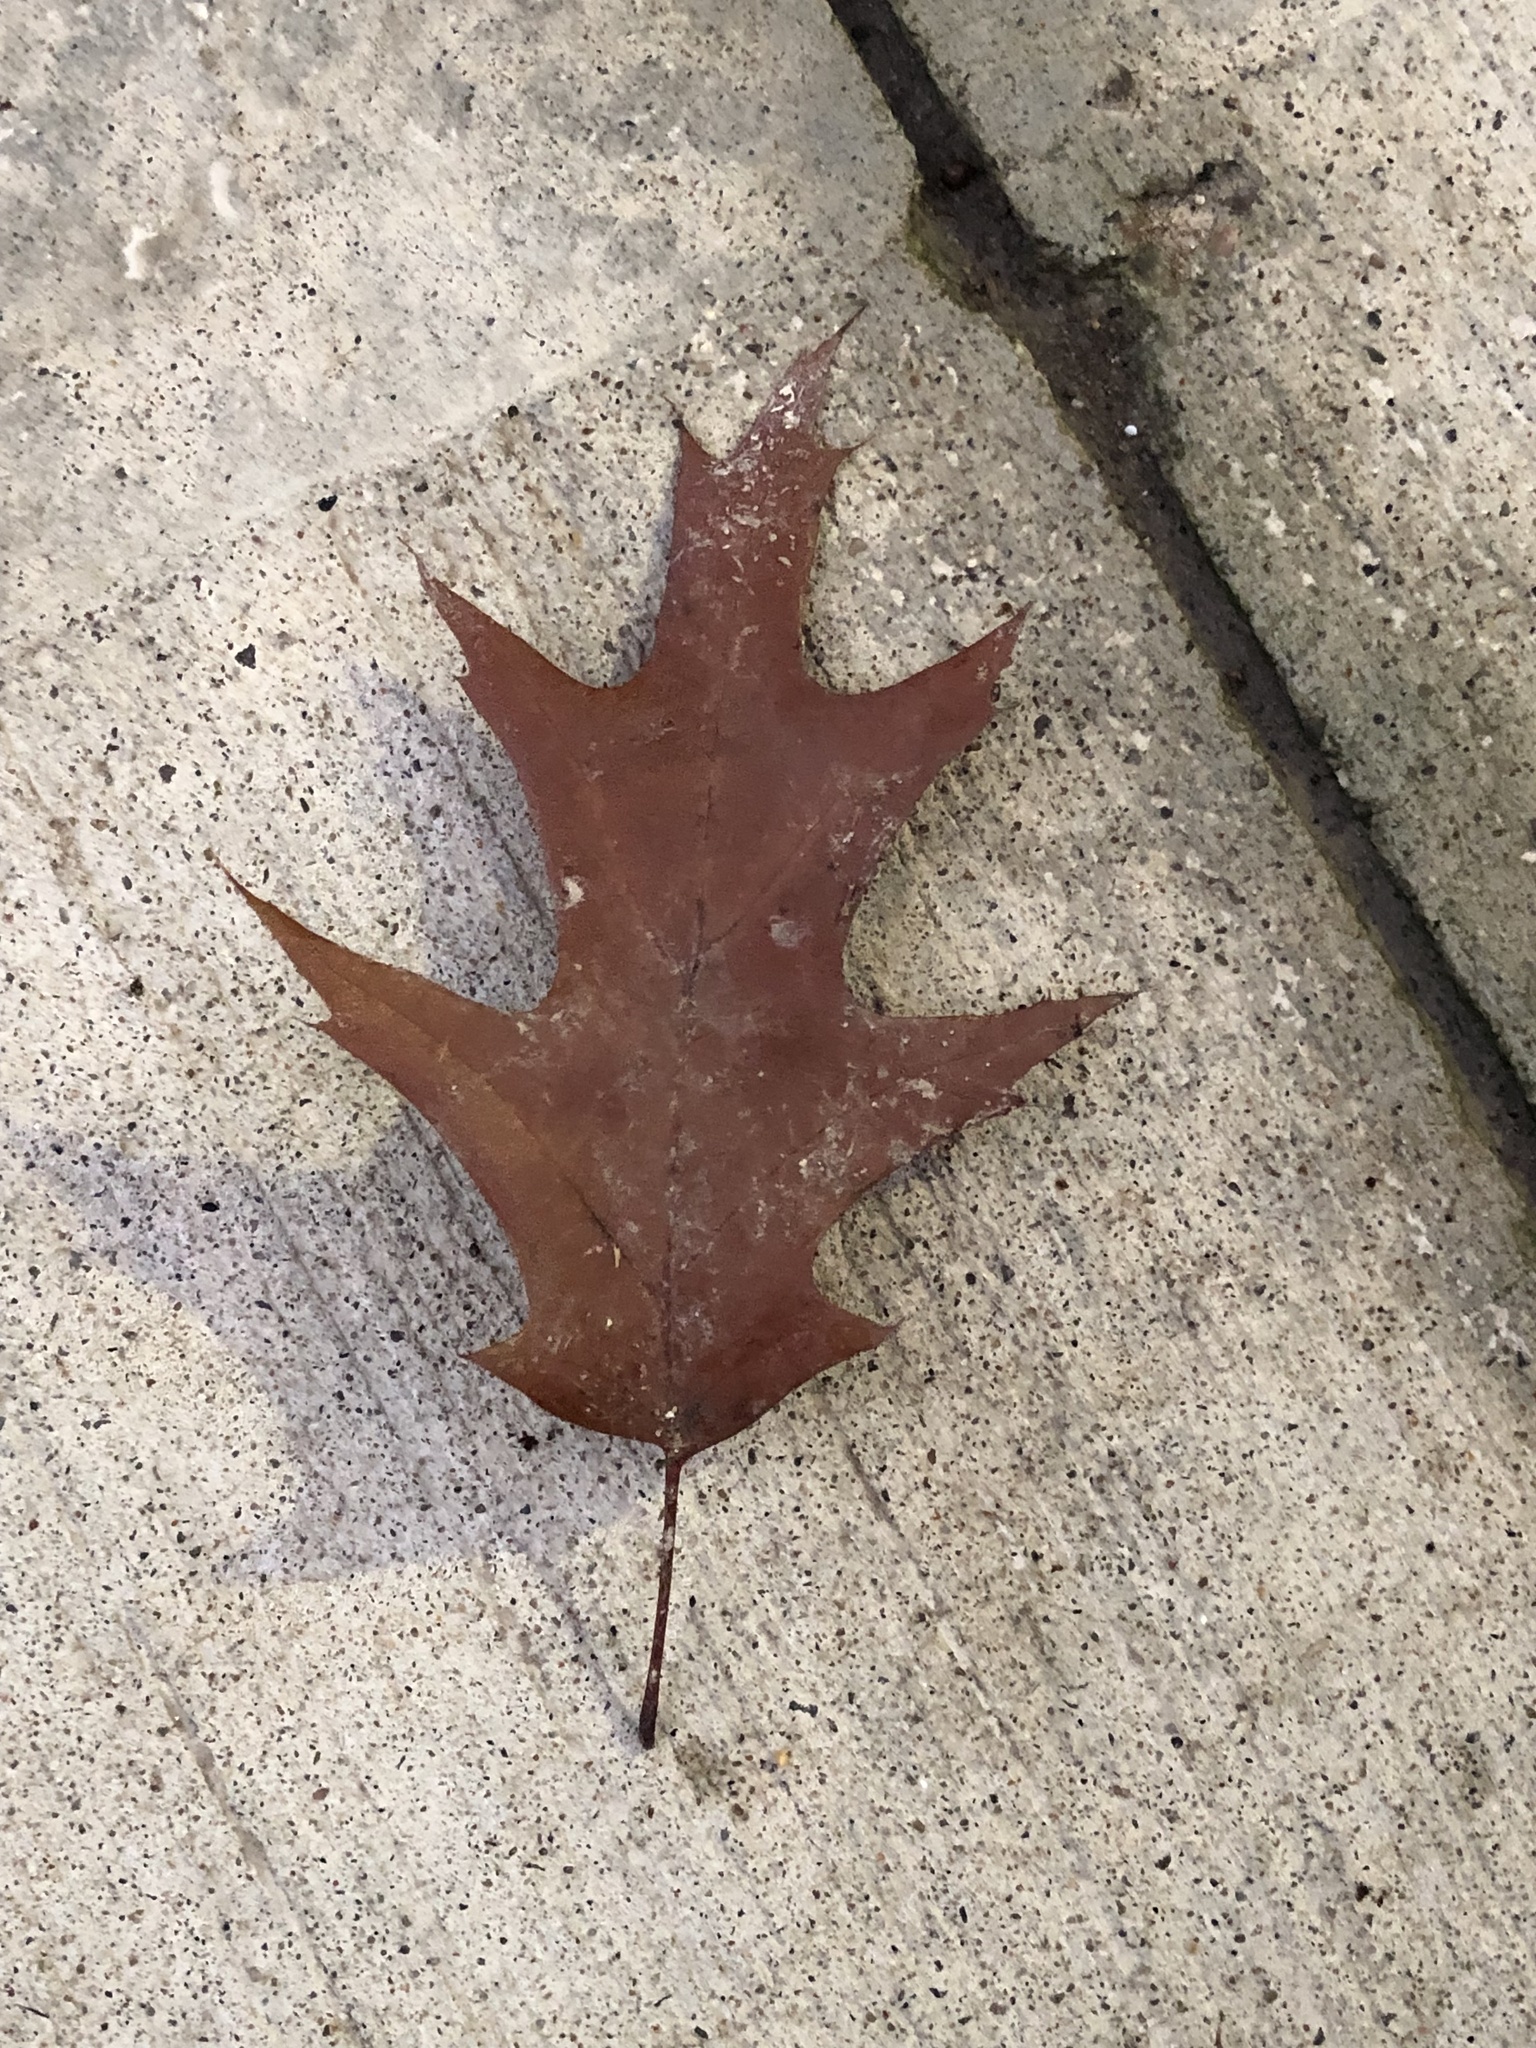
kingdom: Plantae
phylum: Tracheophyta
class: Magnoliopsida
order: Fagales
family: Fagaceae
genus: Quercus
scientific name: Quercus rubra
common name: Red oak
